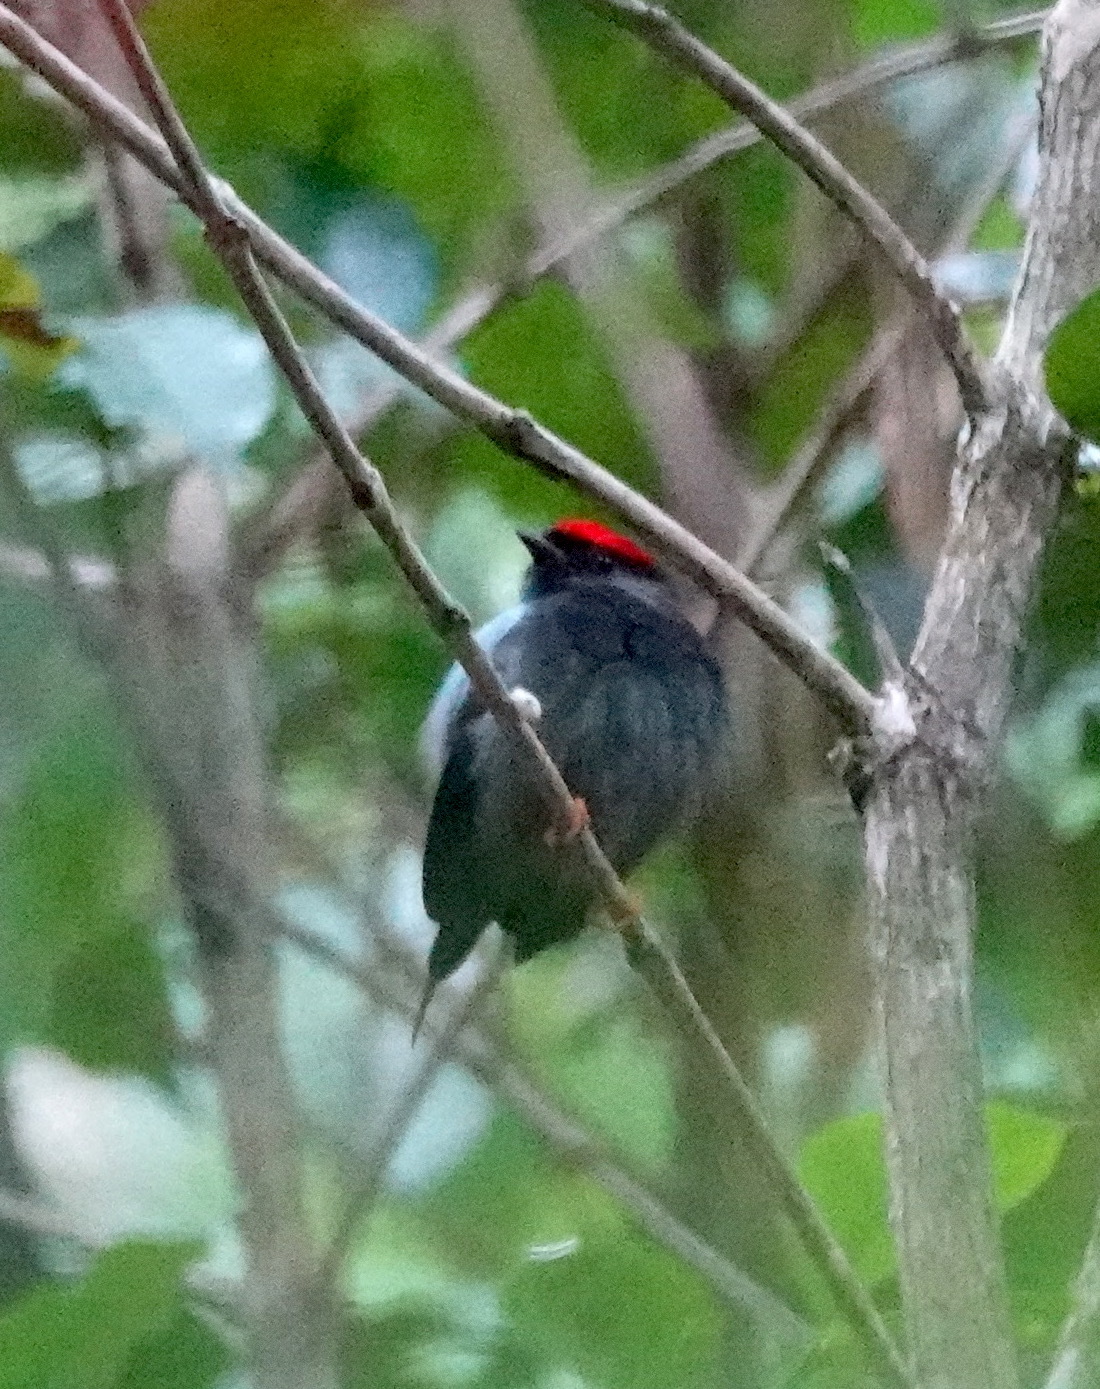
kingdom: Animalia
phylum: Chordata
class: Aves
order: Passeriformes
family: Pipridae
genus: Chiroxiphia
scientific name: Chiroxiphia lanceolata
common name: Lance-tailed manakin
